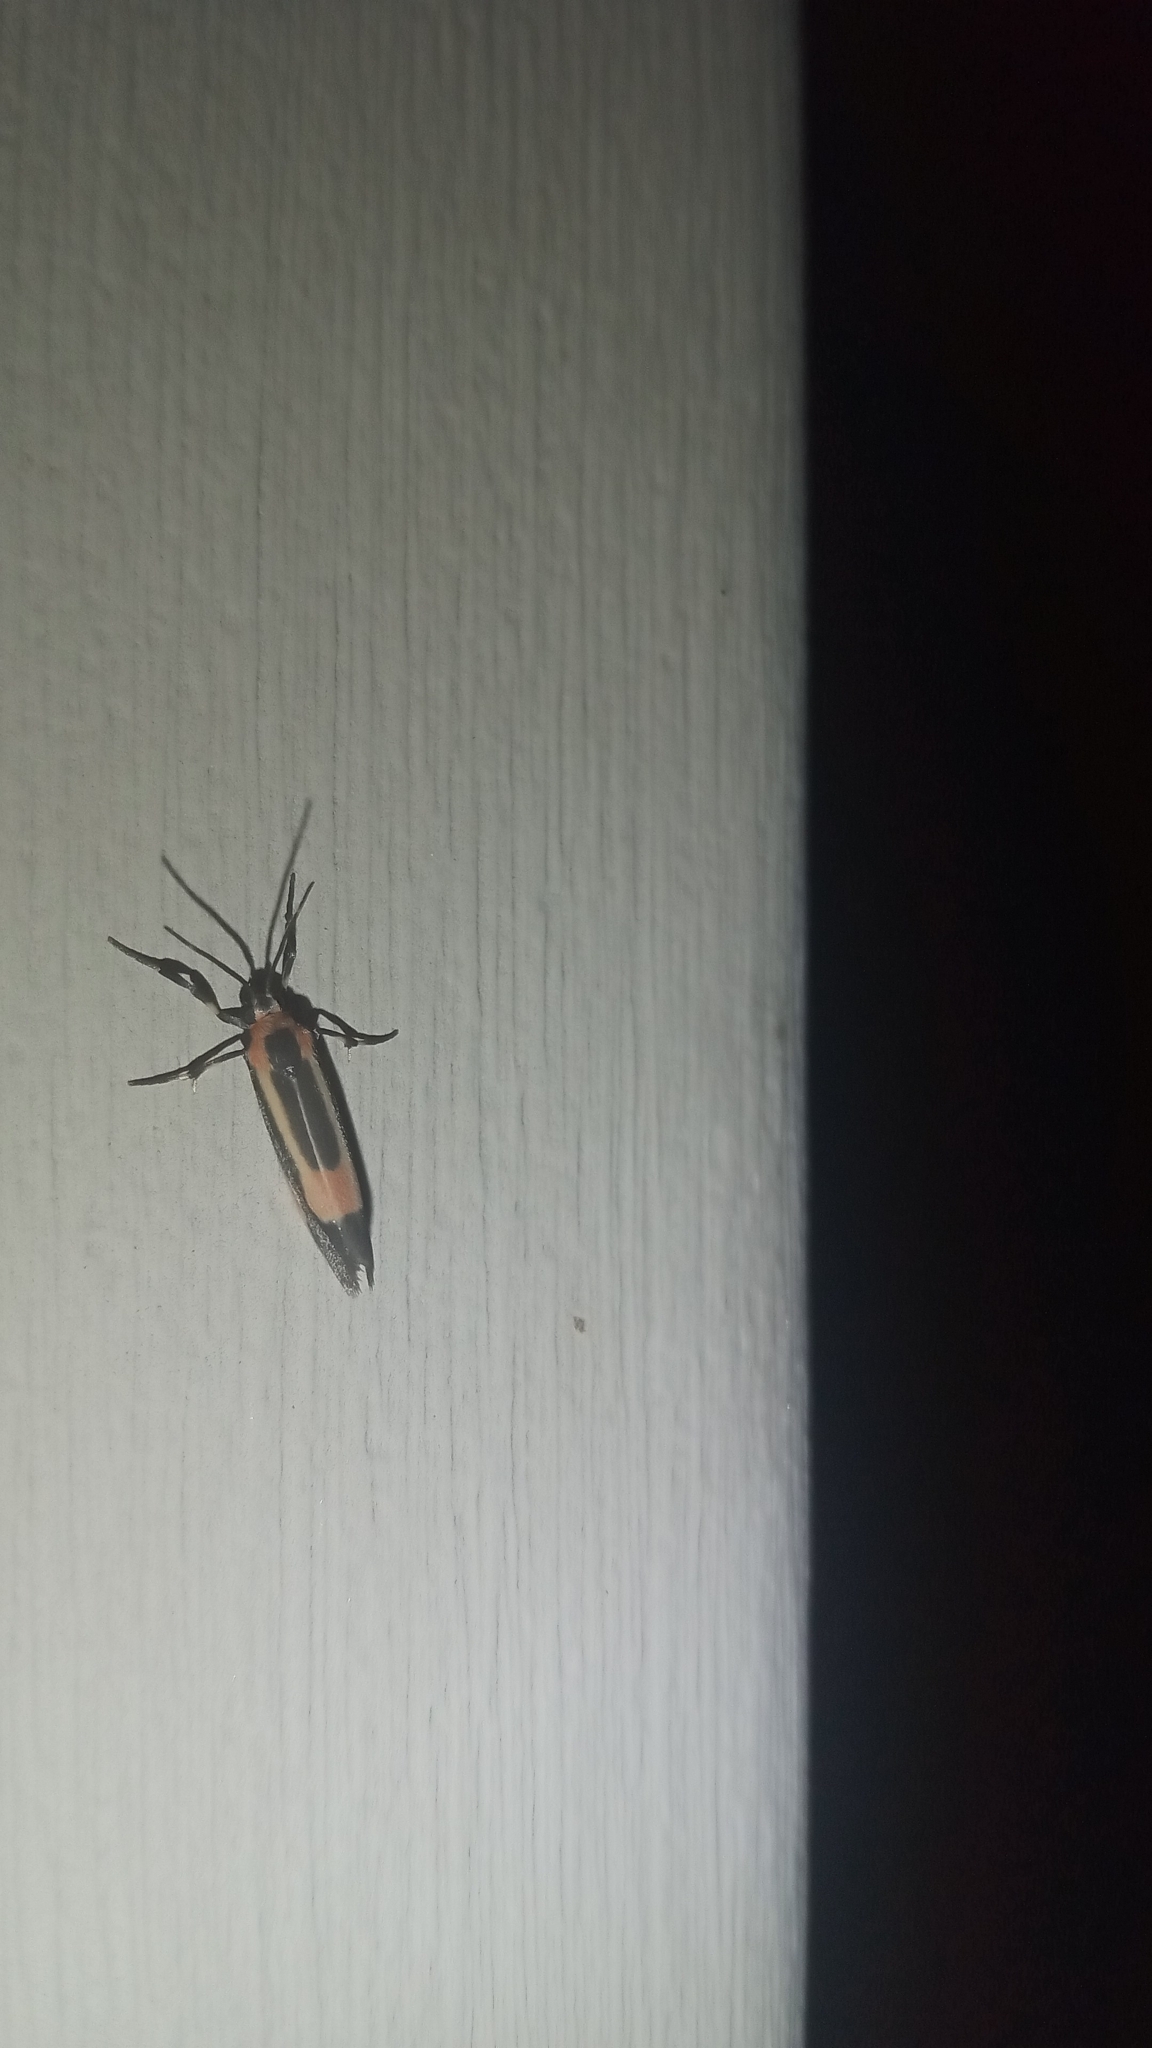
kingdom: Animalia
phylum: Arthropoda
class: Insecta
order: Lepidoptera
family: Erebidae
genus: Cisthene
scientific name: Cisthene packardii
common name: Packard's lichen moth
